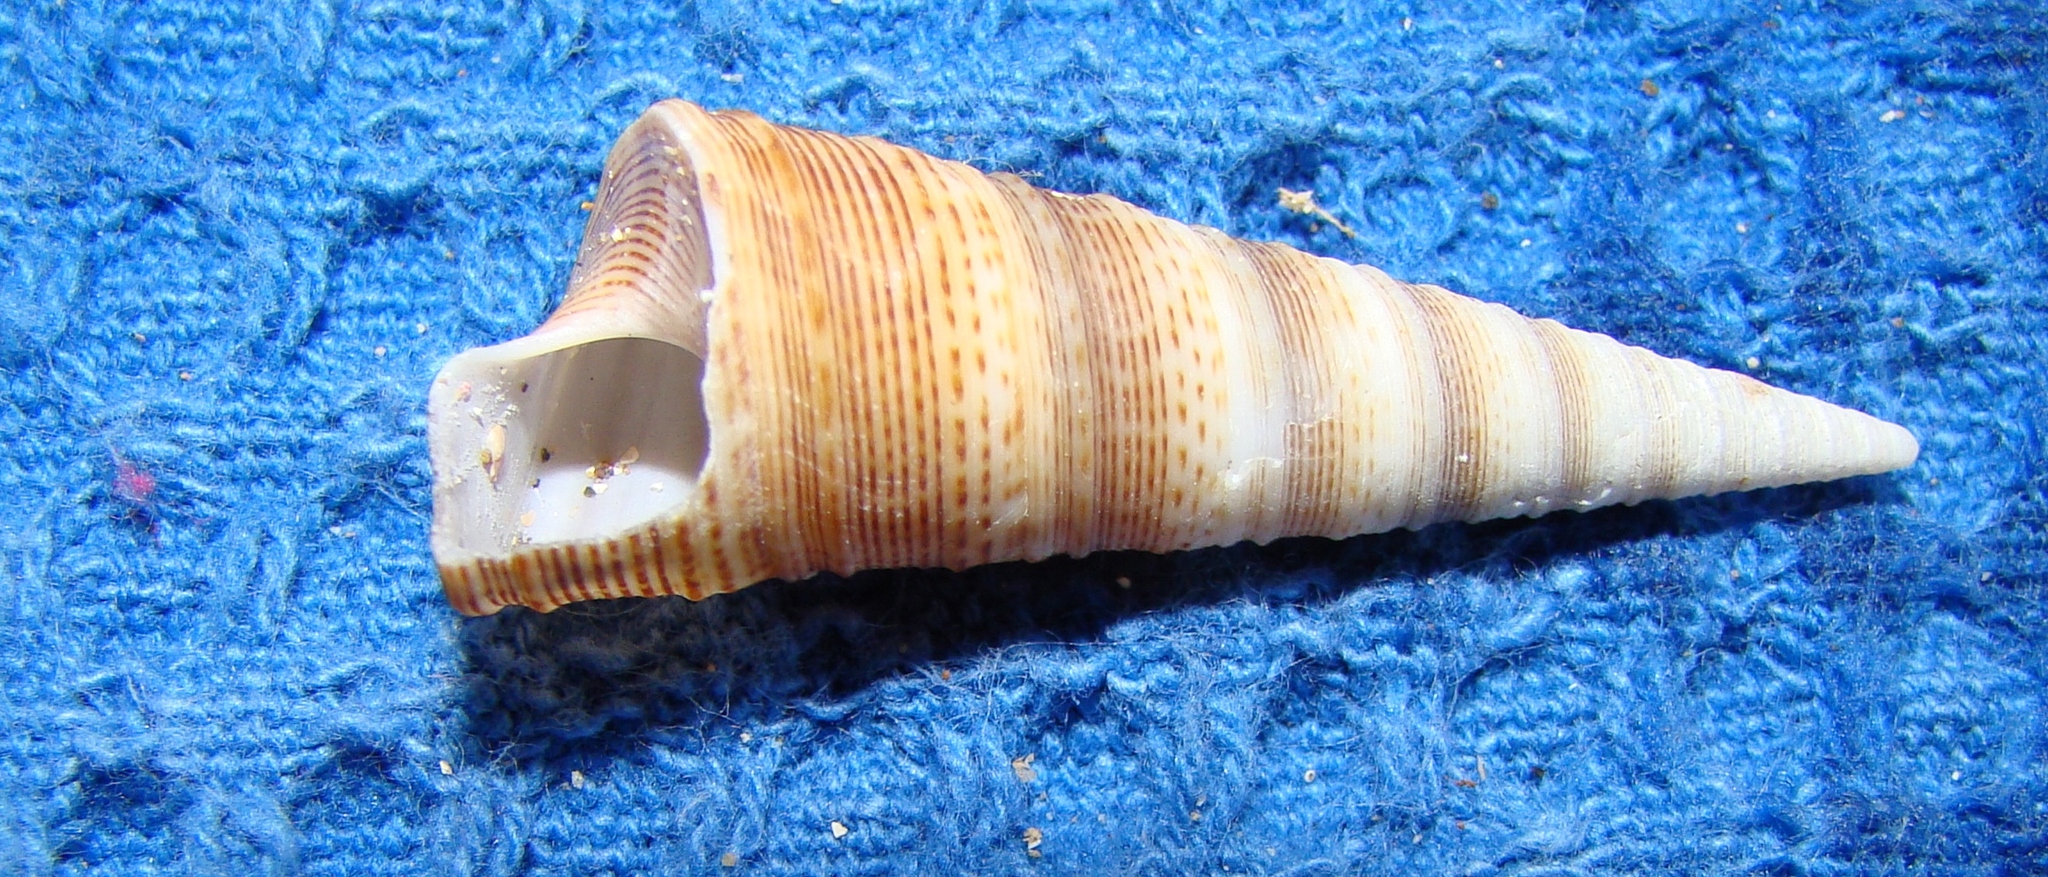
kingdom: Animalia
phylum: Mollusca
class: Gastropoda
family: Turritellidae
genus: Maoricolpus
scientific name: Maoricolpus roseus
